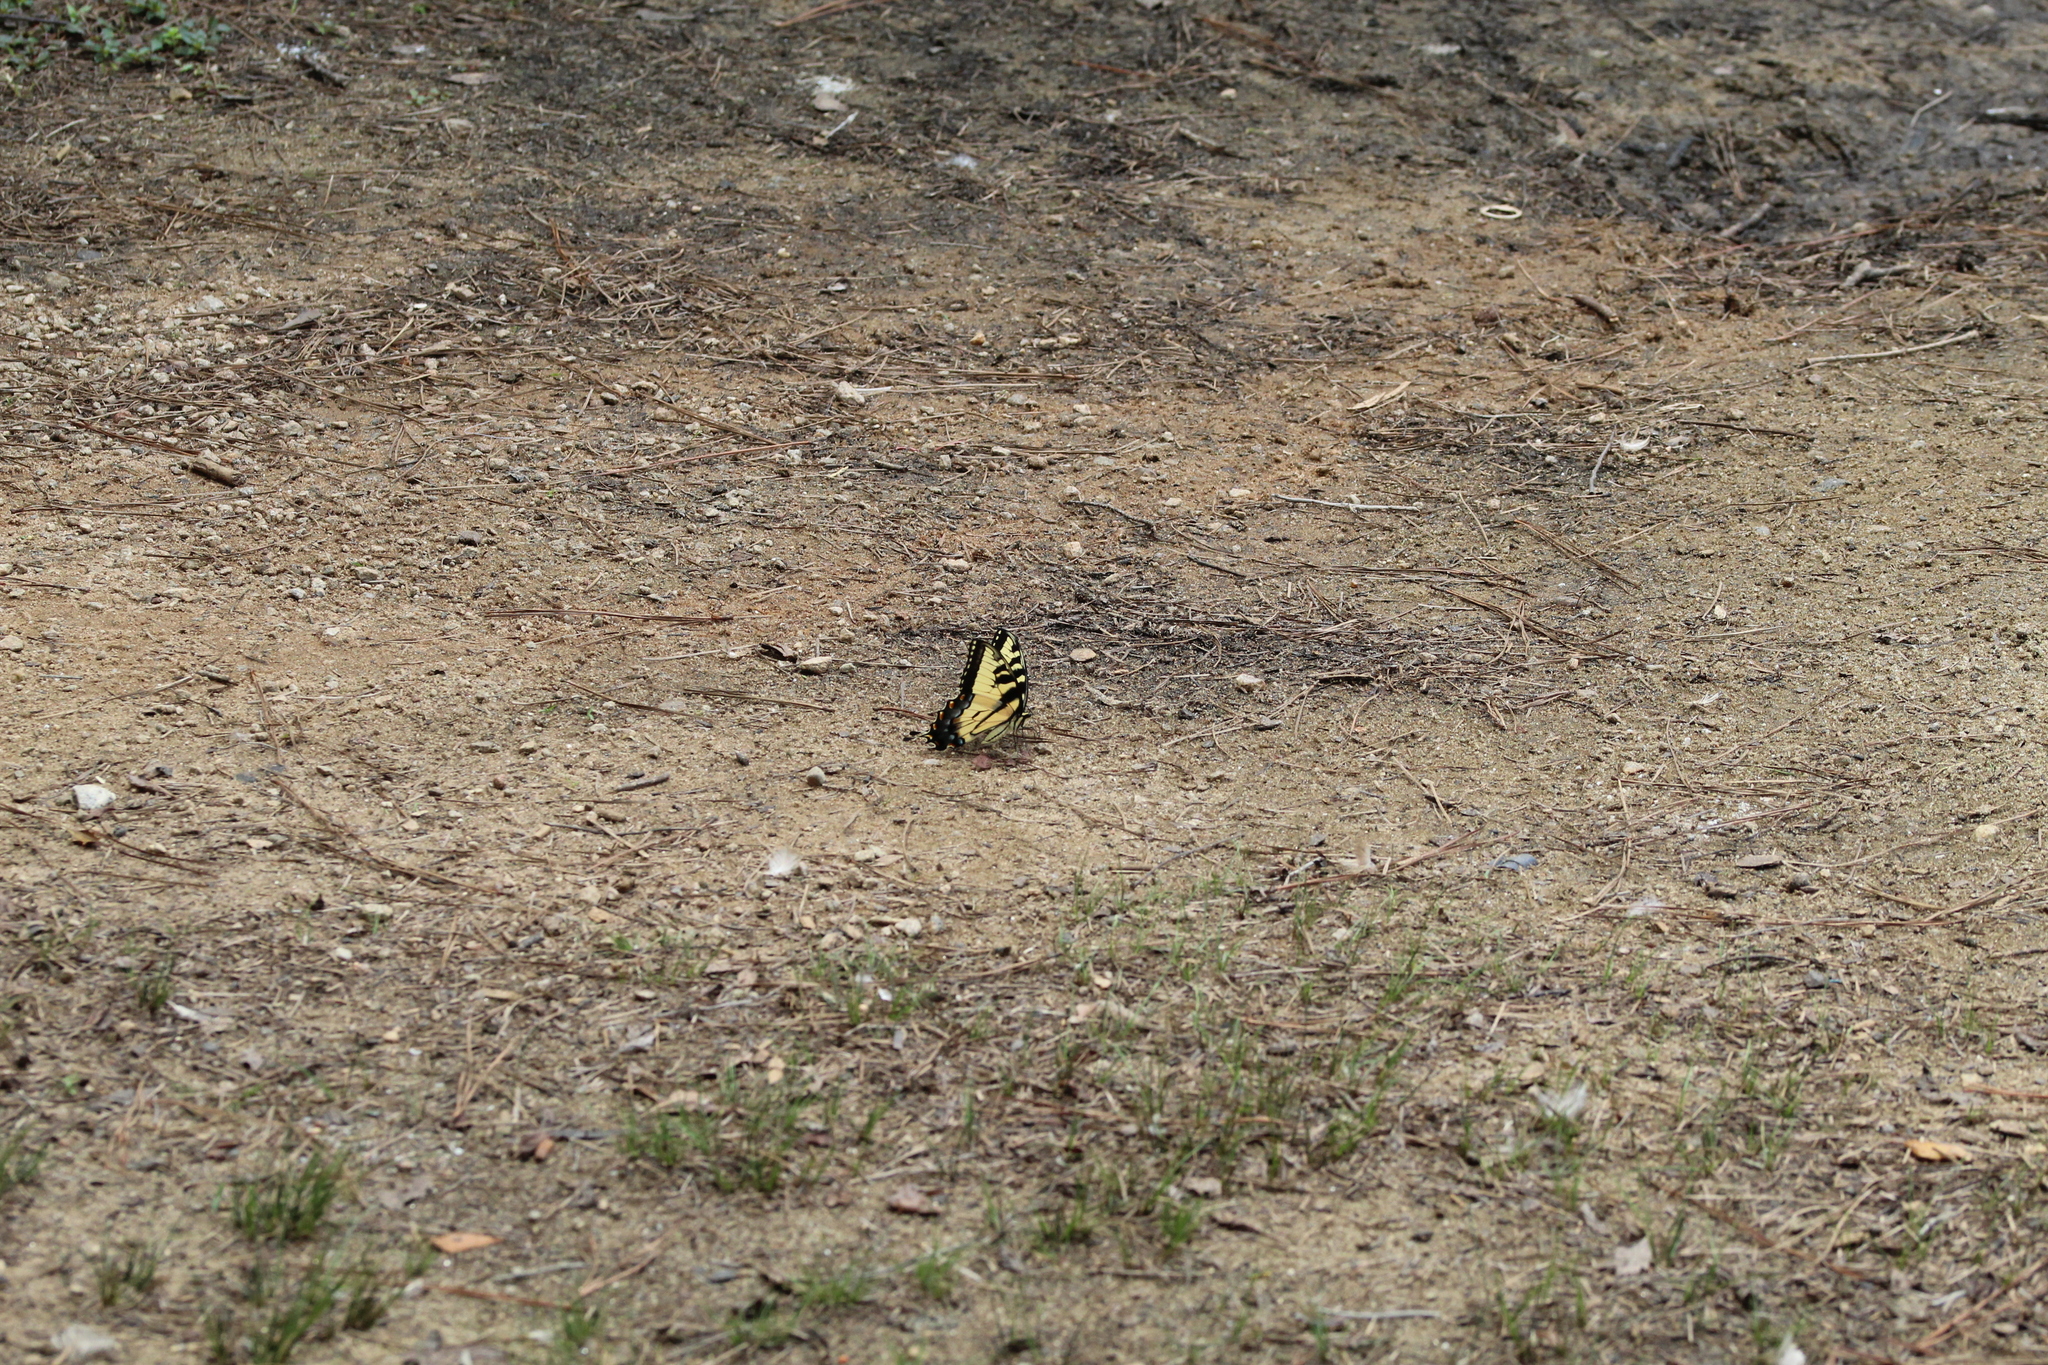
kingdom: Animalia
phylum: Arthropoda
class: Insecta
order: Lepidoptera
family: Papilionidae
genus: Papilio
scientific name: Papilio glaucus
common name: Tiger swallowtail
